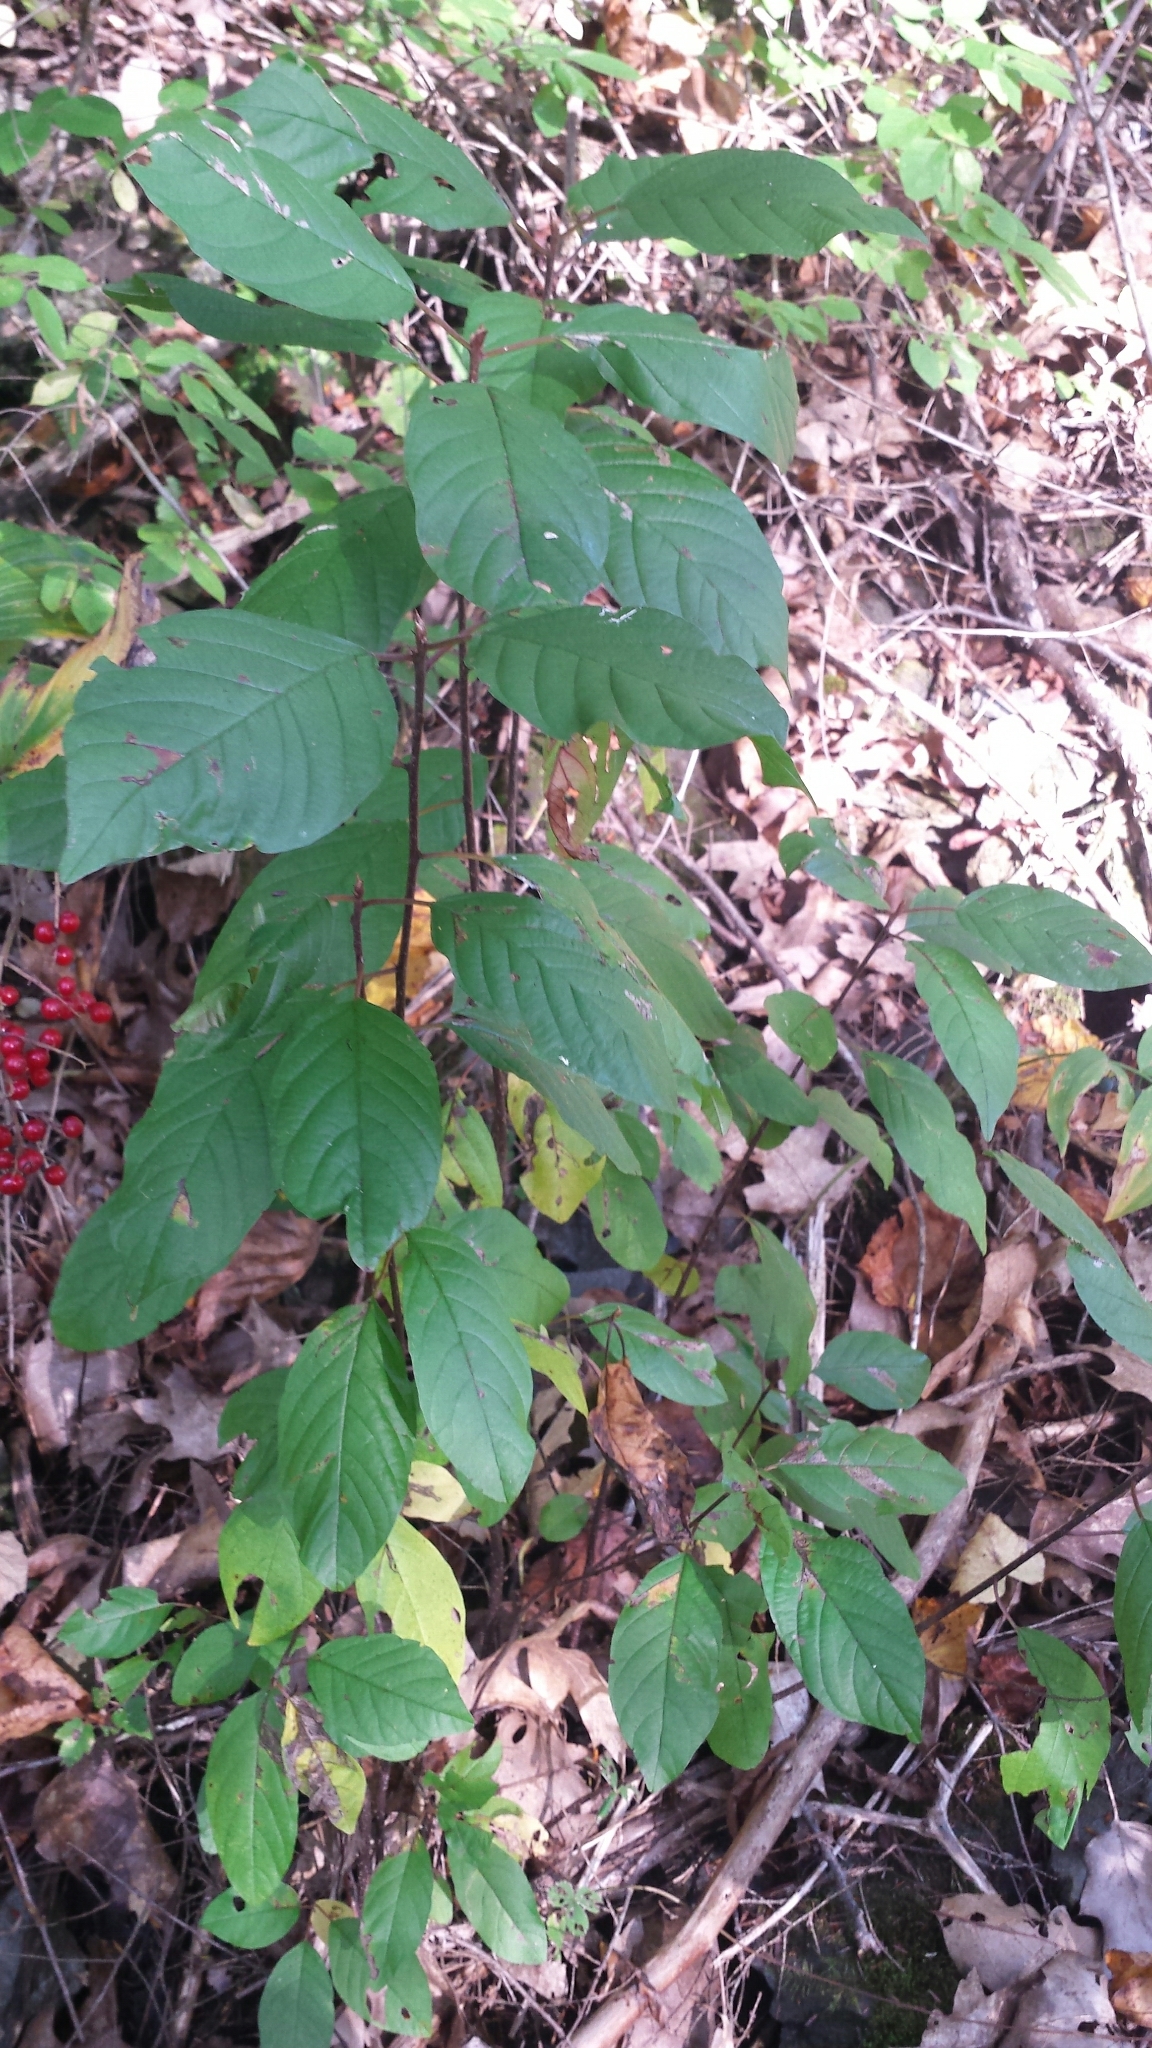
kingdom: Plantae
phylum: Tracheophyta
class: Magnoliopsida
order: Rosales
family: Rhamnaceae
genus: Frangula
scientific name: Frangula alnus
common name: Alder buckthorn
